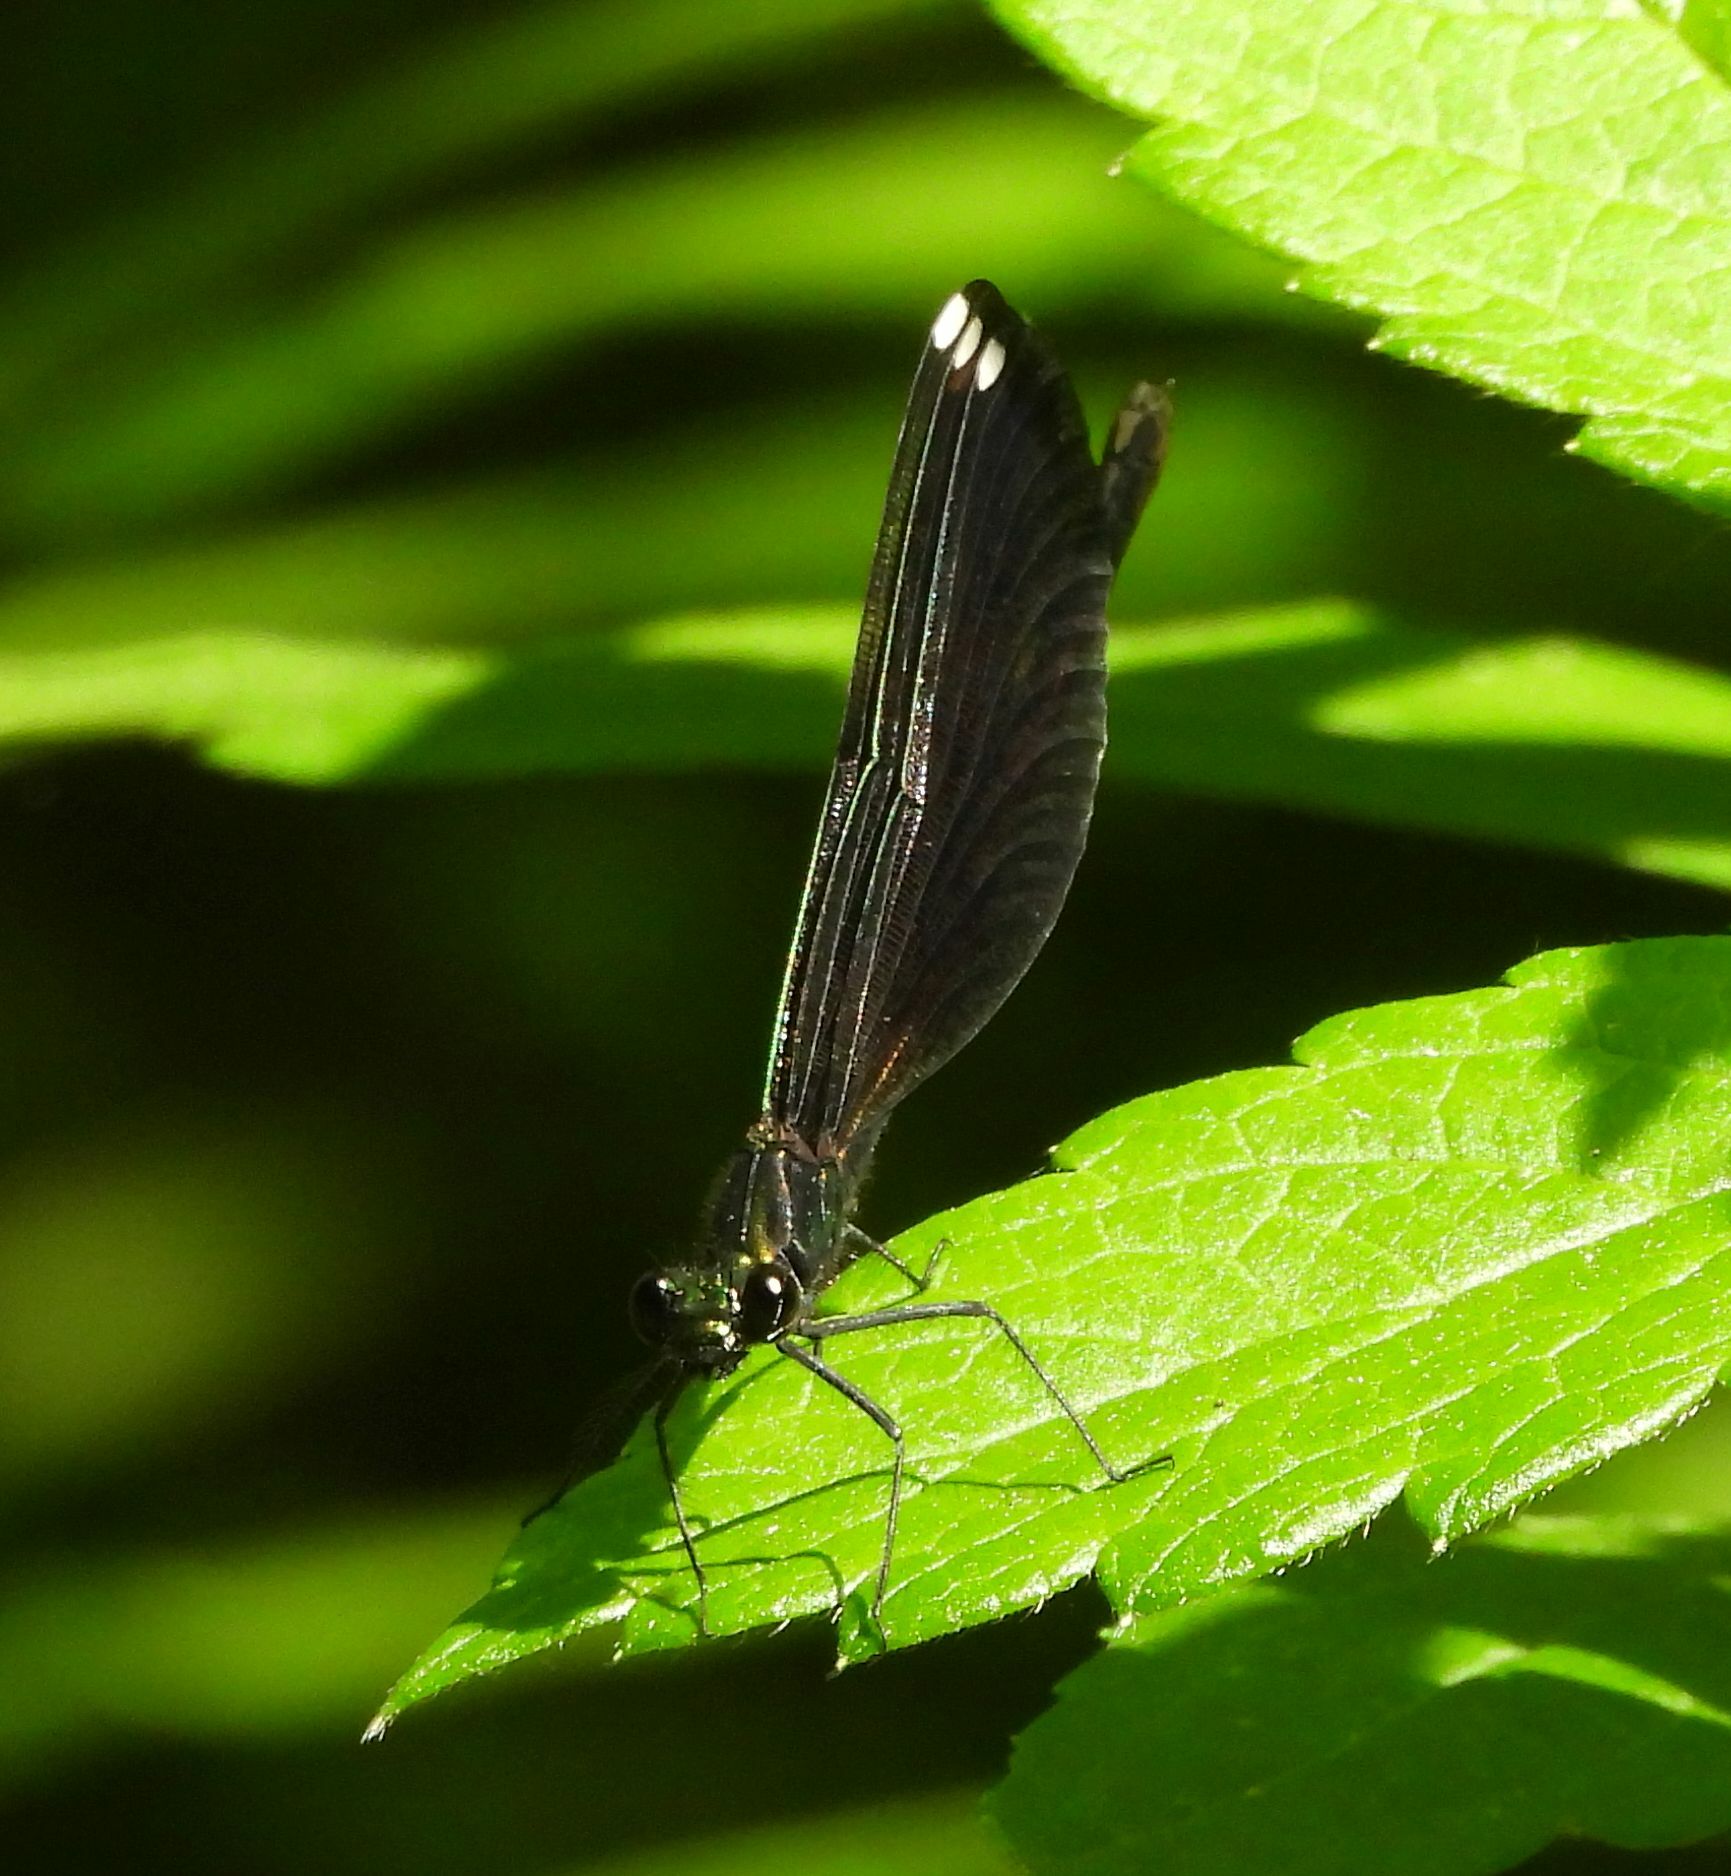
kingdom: Animalia
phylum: Arthropoda
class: Insecta
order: Odonata
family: Calopterygidae
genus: Calopteryx
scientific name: Calopteryx maculata
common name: Ebony jewelwing
